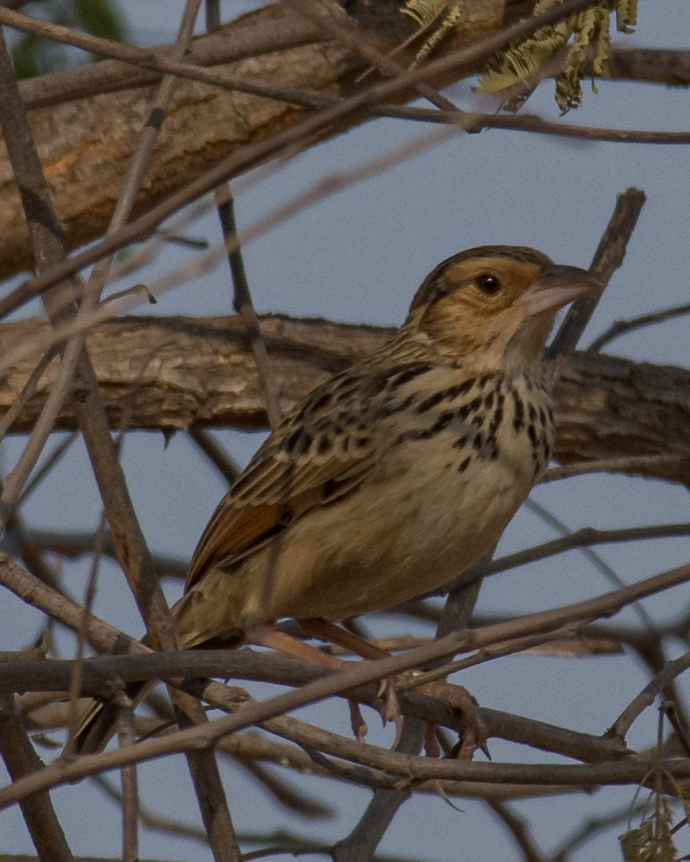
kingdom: Animalia
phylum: Chordata
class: Aves
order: Passeriformes
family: Alaudidae
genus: Mirafra
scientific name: Mirafra microptera
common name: Burmese bushlark
